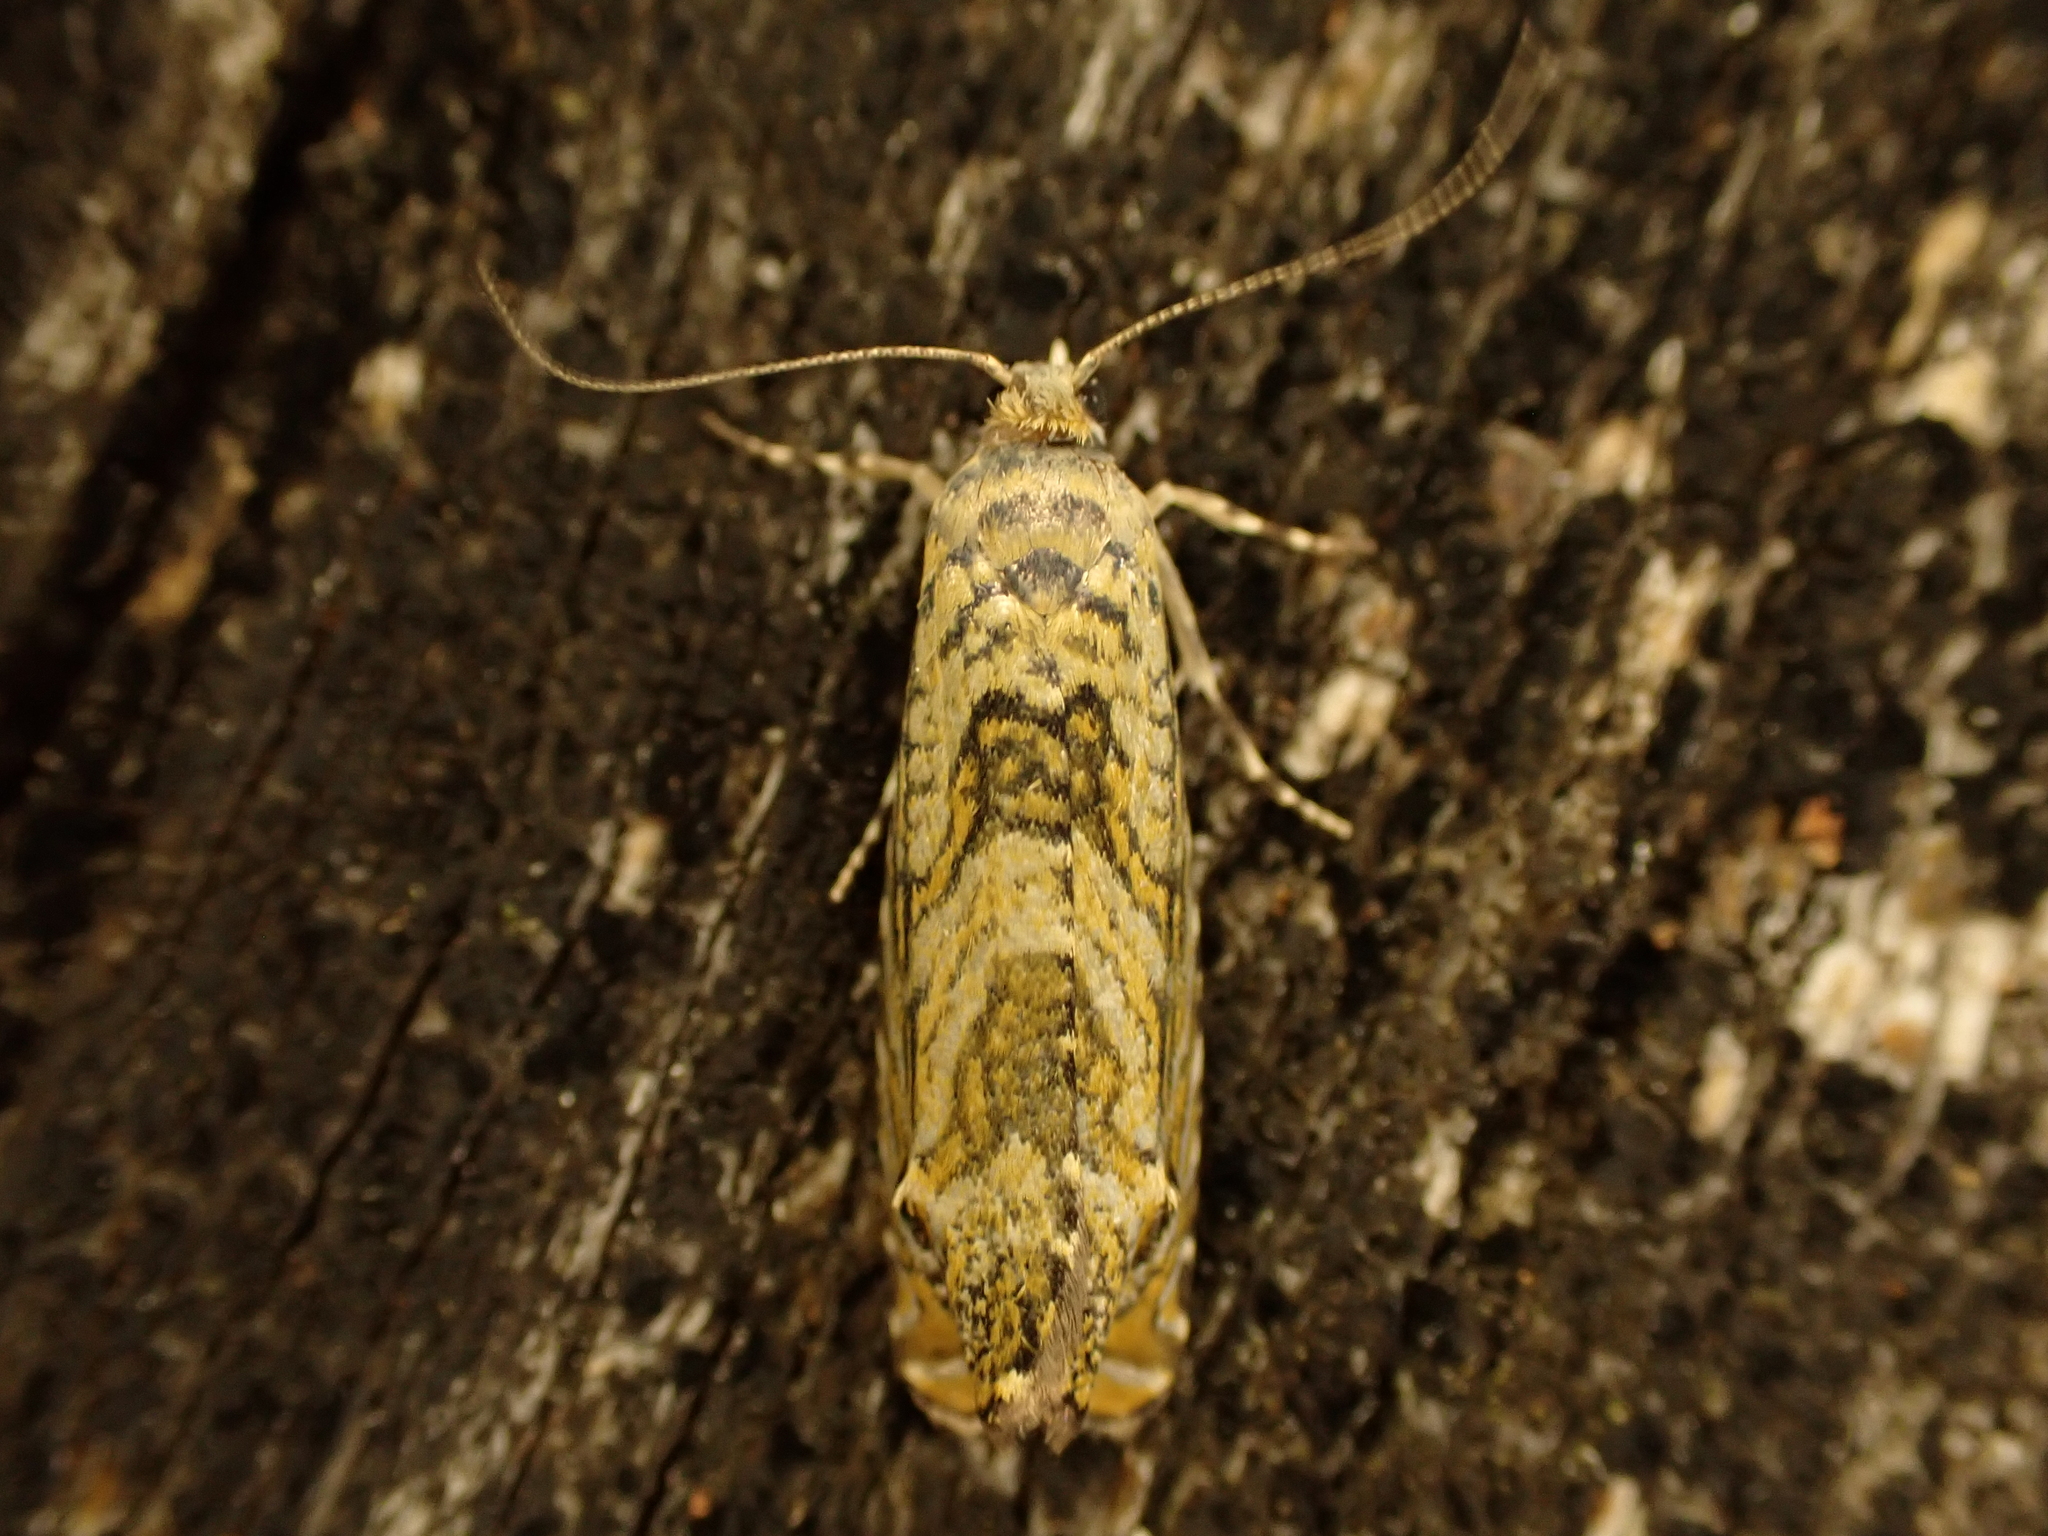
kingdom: Animalia
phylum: Arthropoda
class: Insecta
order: Lepidoptera
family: Plutellidae
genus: Doxophyrtis
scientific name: Doxophyrtis hydrocosma
